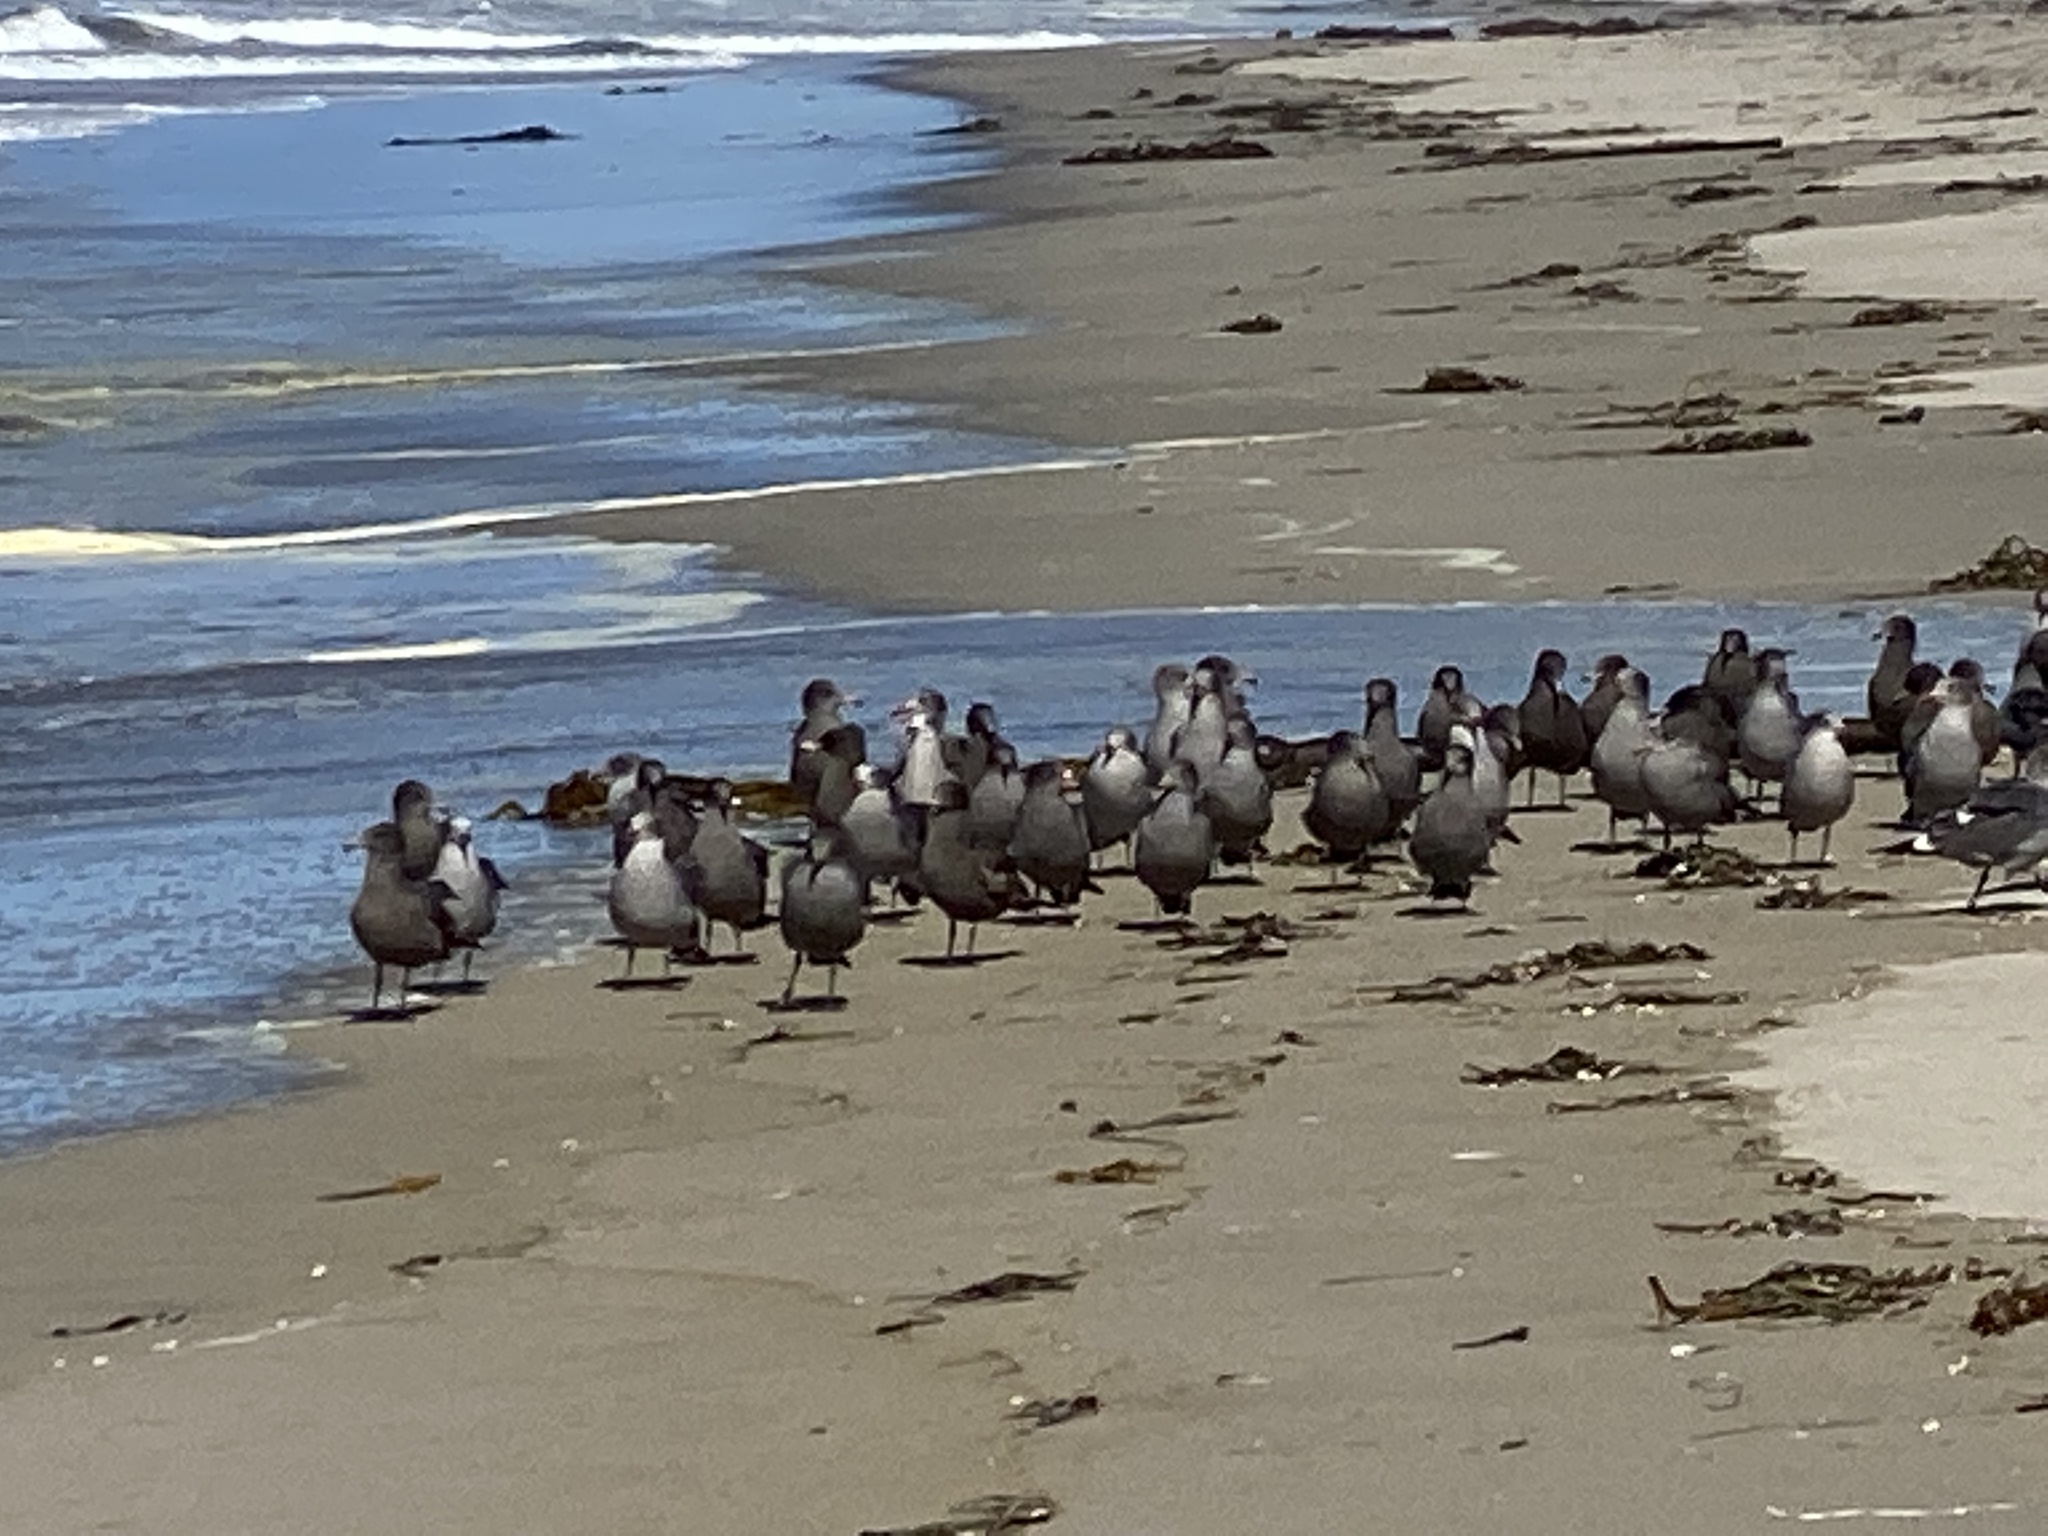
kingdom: Animalia
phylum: Chordata
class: Aves
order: Charadriiformes
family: Laridae
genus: Larus
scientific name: Larus heermanni
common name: Heermann's gull
